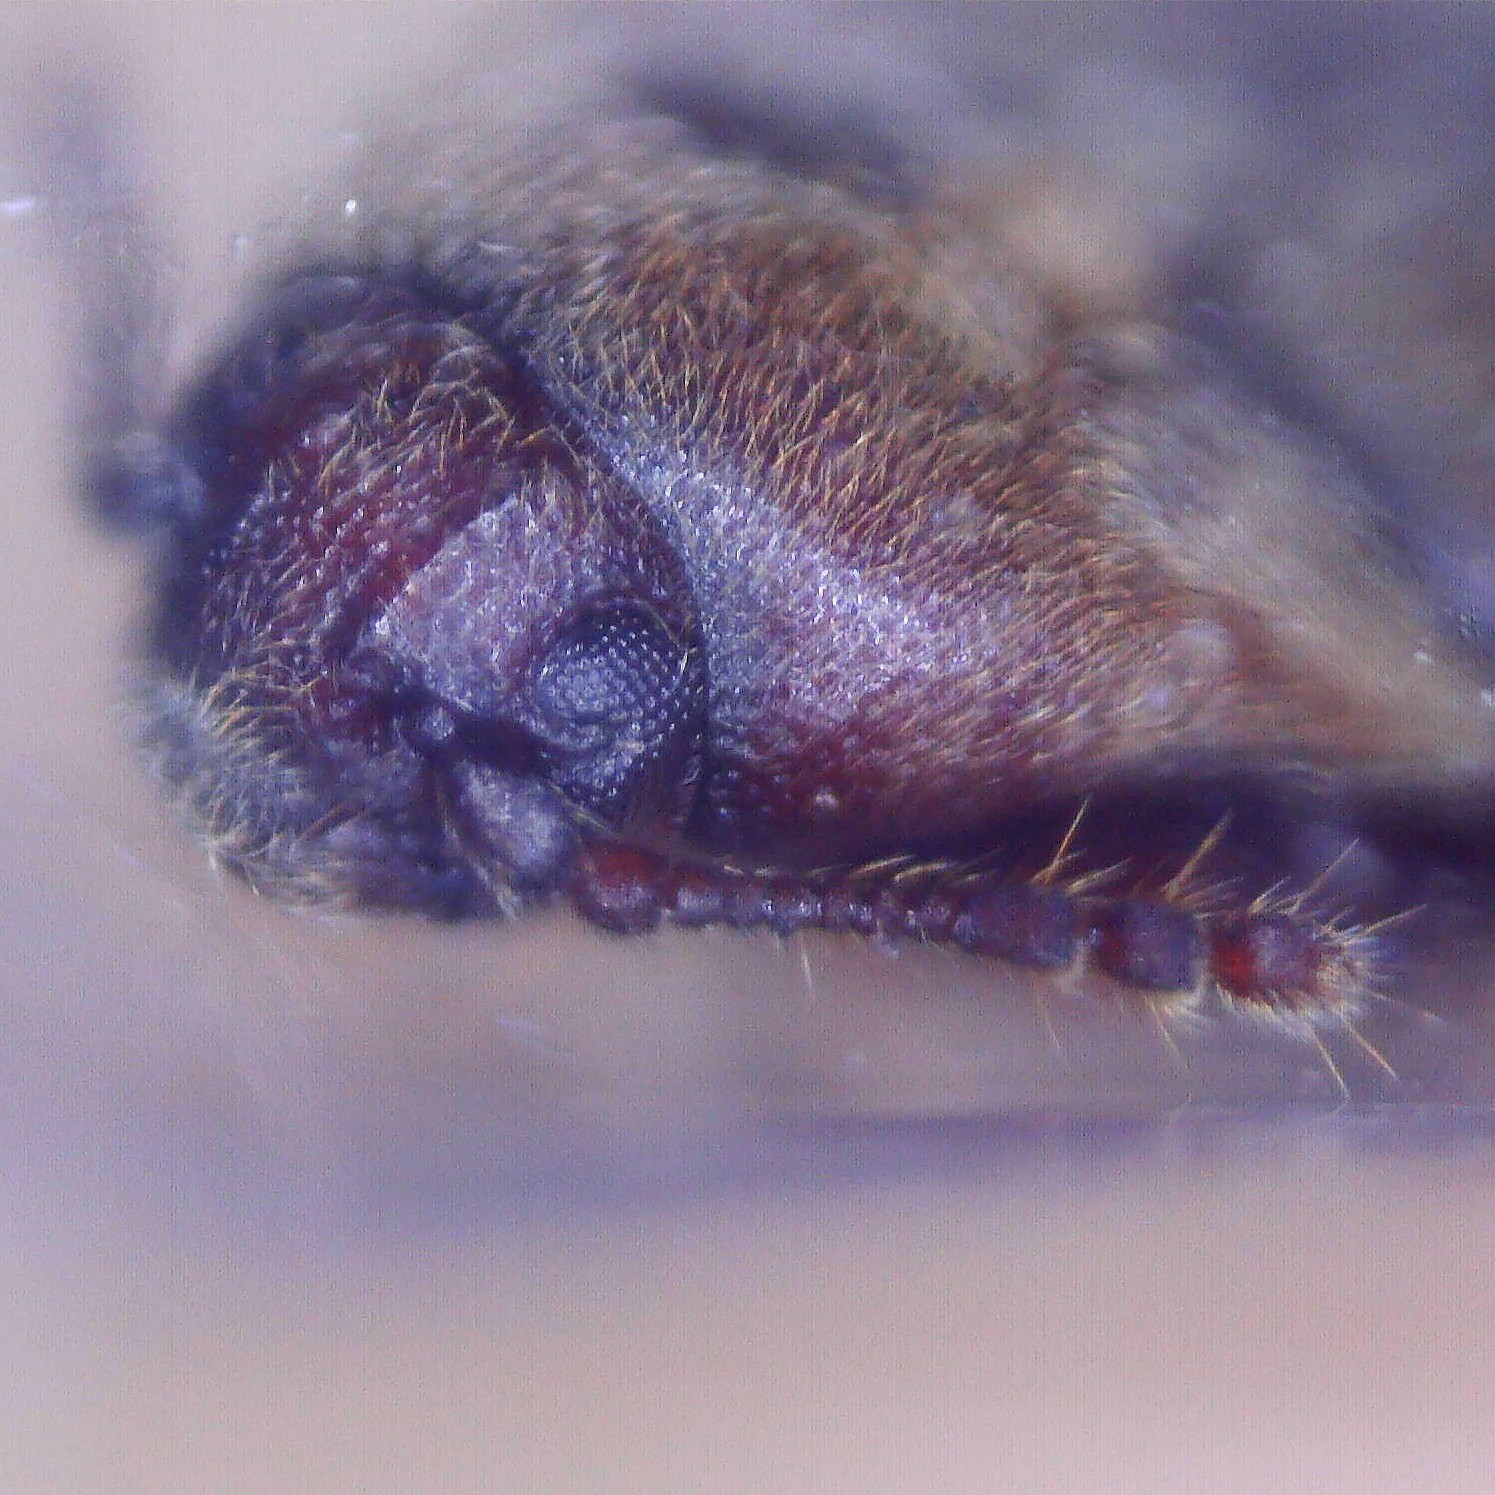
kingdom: Animalia
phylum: Arthropoda
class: Insecta
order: Coleoptera
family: Throscidae
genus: Trixagus
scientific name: Trixagus dermestoides
